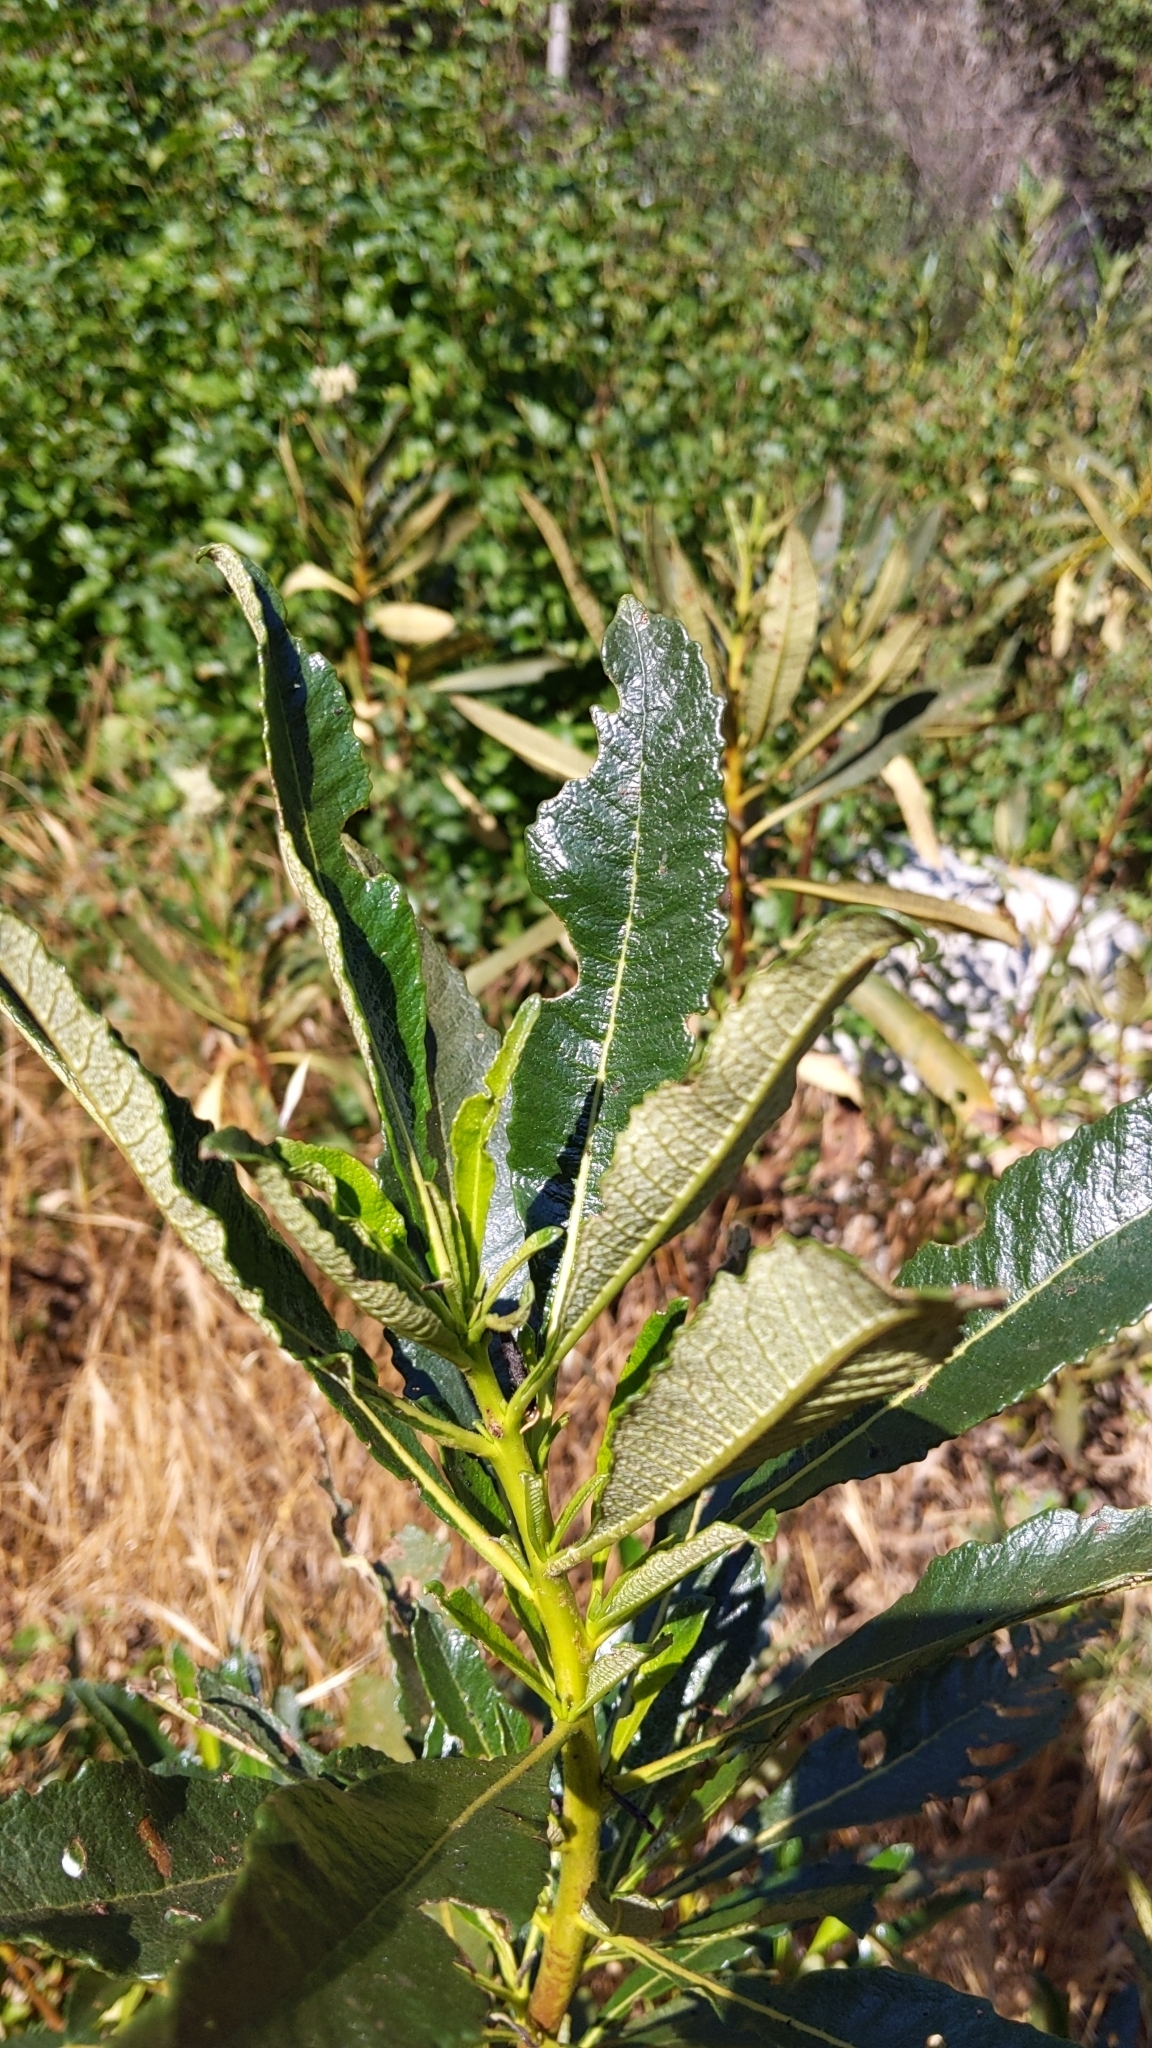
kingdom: Plantae
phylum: Tracheophyta
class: Magnoliopsida
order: Boraginales
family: Namaceae
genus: Eriodictyon
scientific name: Eriodictyon trichocalyx
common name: Hairy yerba-santa
